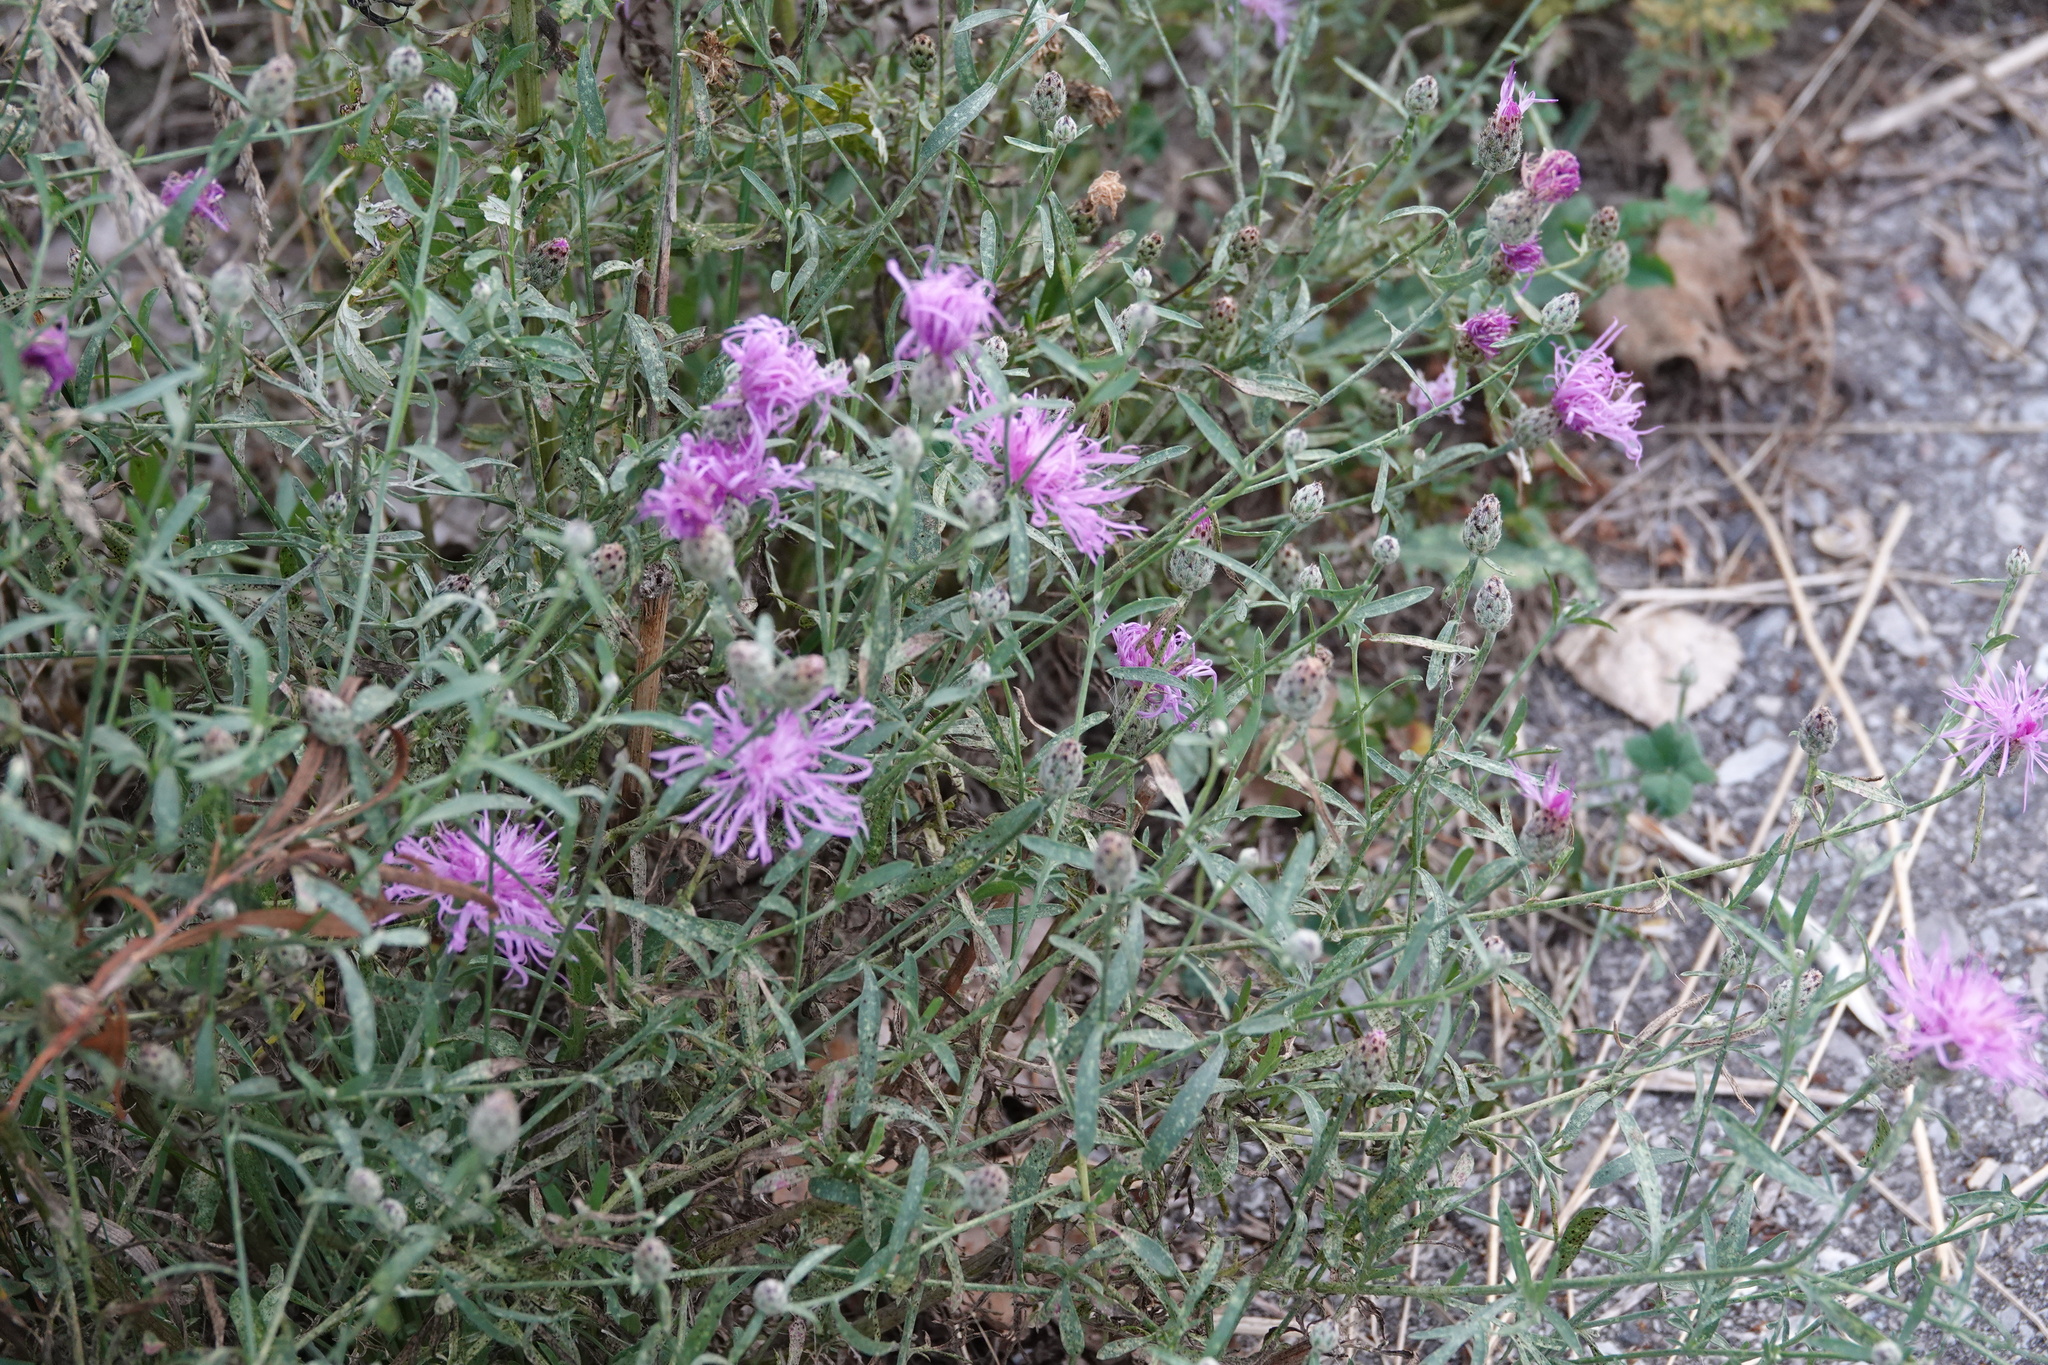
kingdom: Plantae
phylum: Tracheophyta
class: Magnoliopsida
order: Asterales
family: Asteraceae
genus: Centaurea
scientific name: Centaurea stoebe
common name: Spotted knapweed
